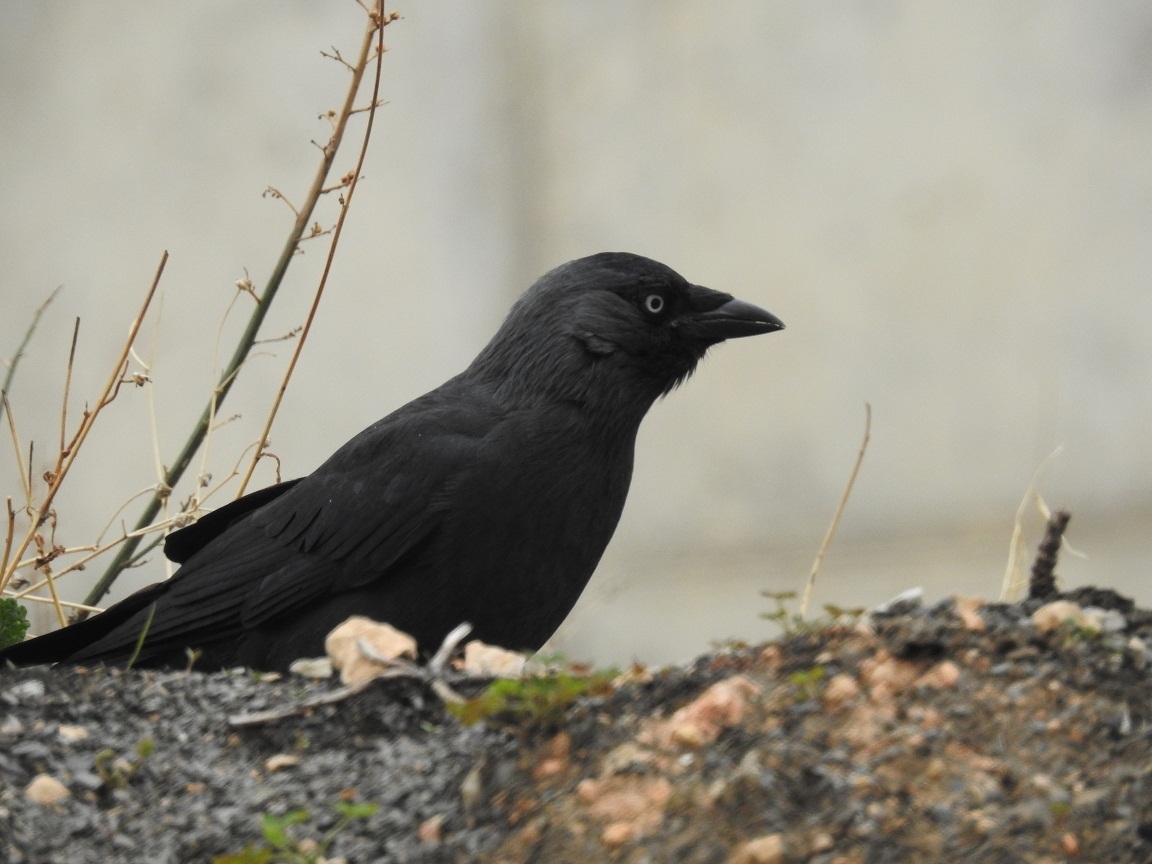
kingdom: Animalia
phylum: Chordata
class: Aves
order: Passeriformes
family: Corvidae
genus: Coloeus
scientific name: Coloeus monedula
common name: Western jackdaw
